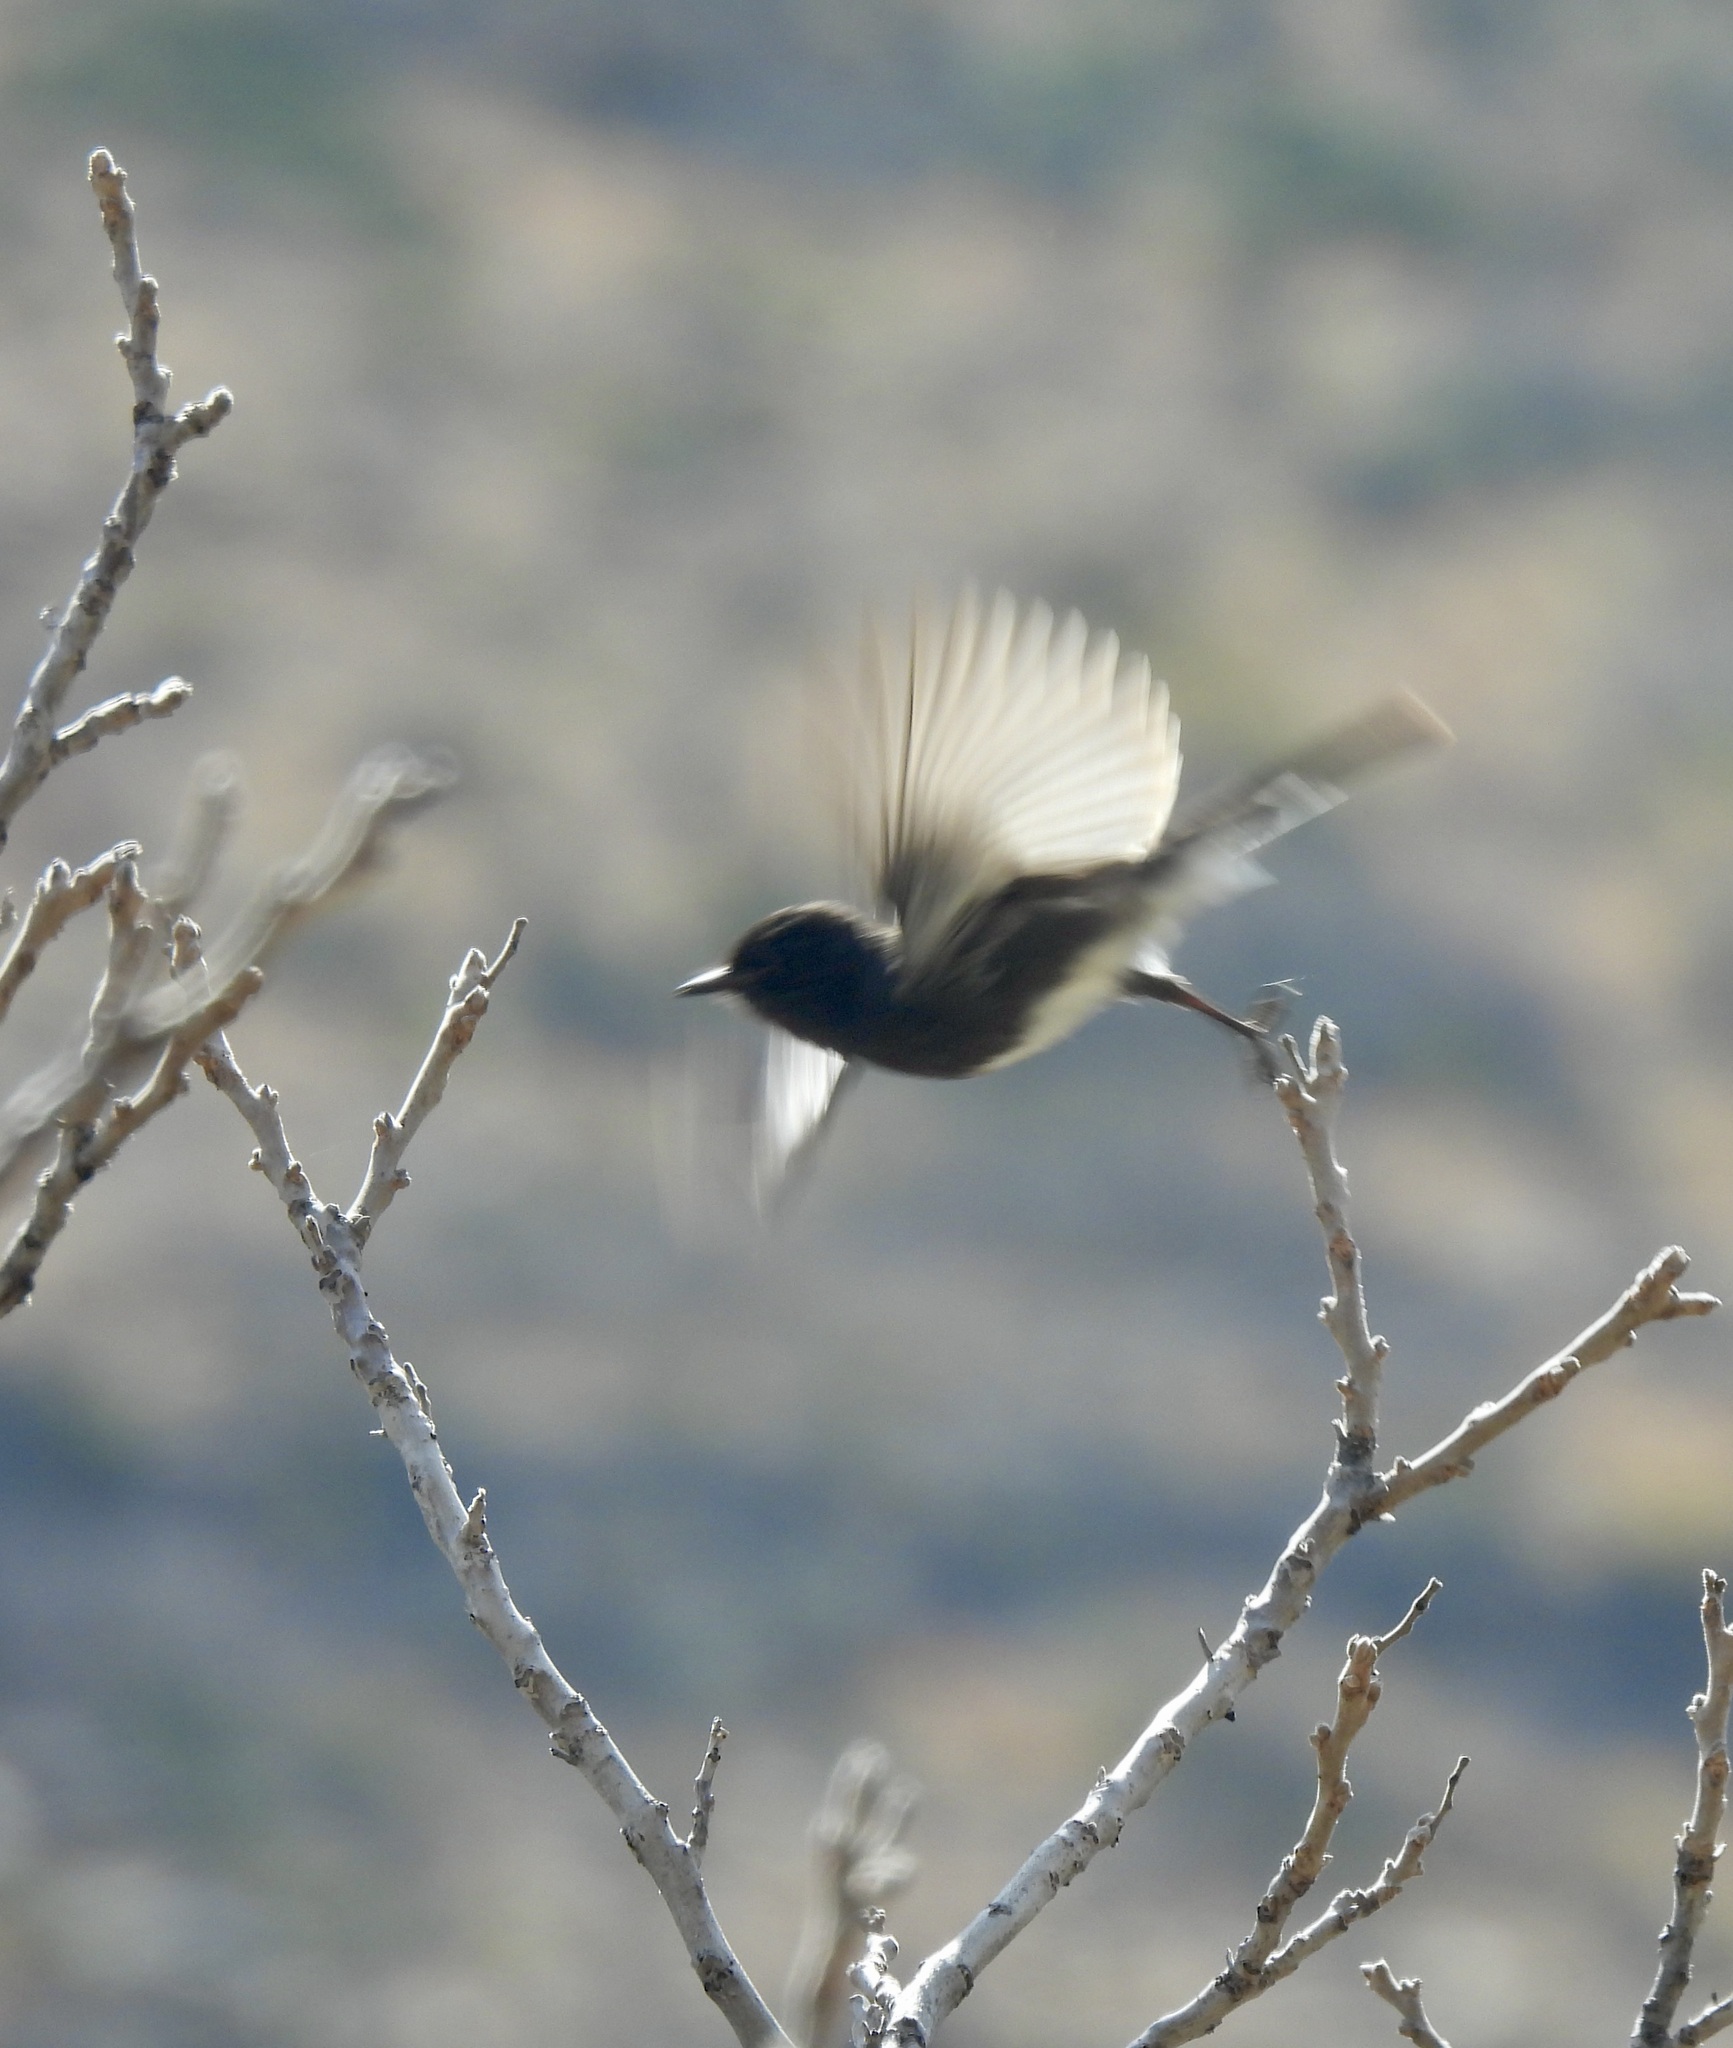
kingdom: Animalia
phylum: Chordata
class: Aves
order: Passeriformes
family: Tyrannidae
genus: Sayornis
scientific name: Sayornis nigricans
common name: Black phoebe
